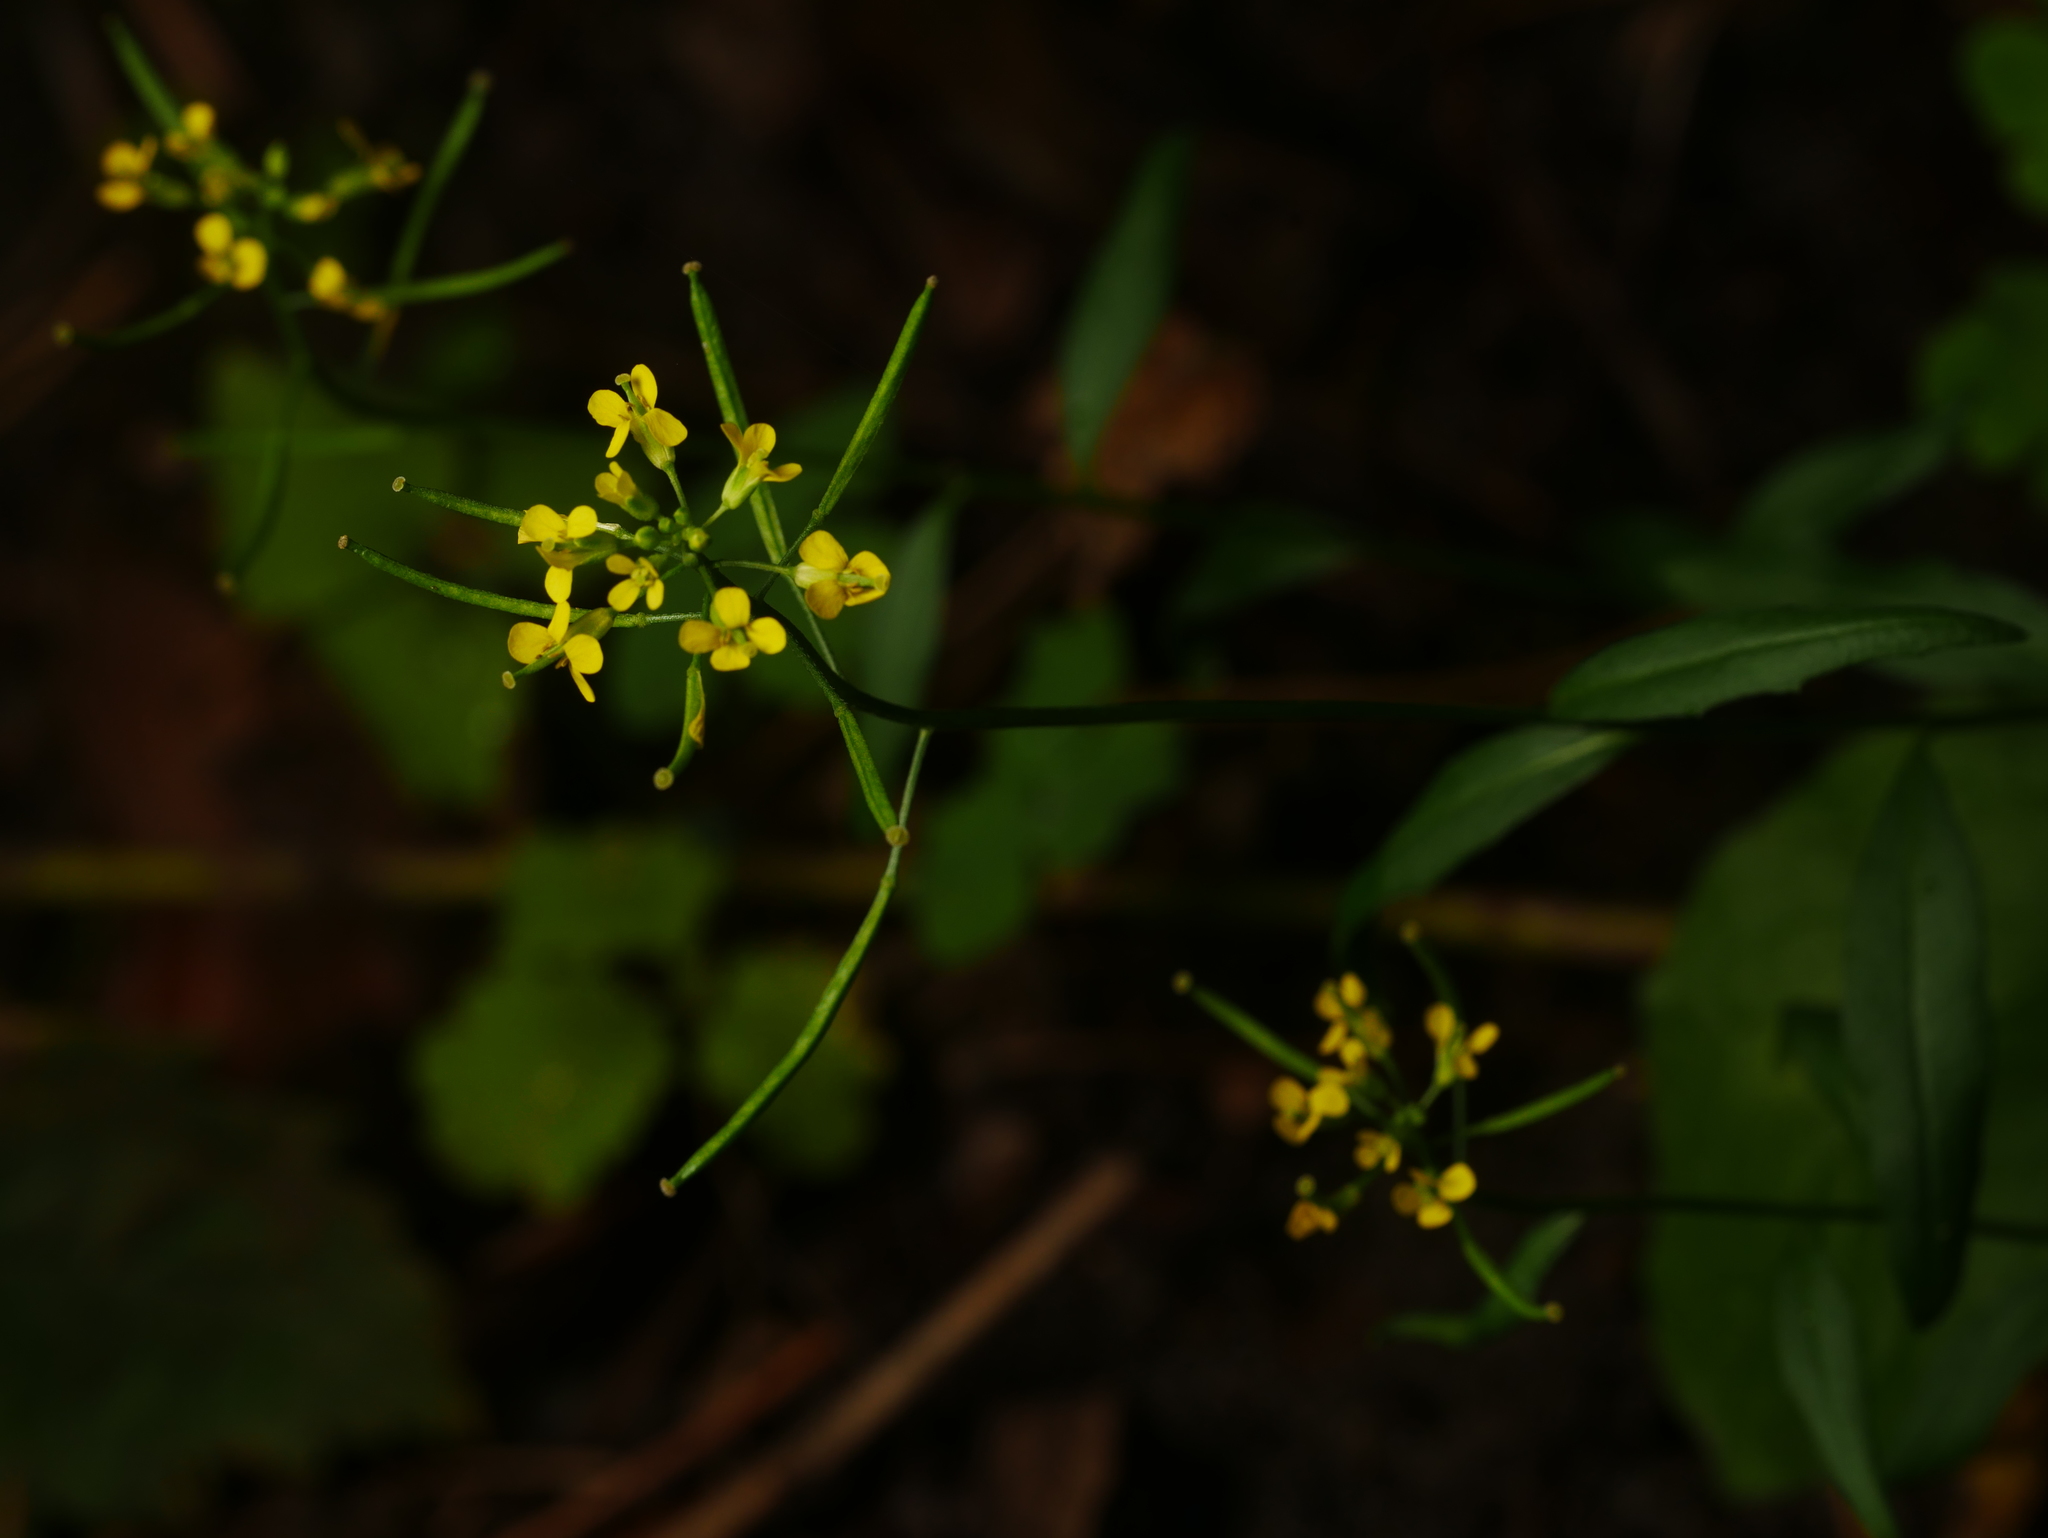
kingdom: Plantae
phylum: Tracheophyta
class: Magnoliopsida
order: Brassicales
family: Brassicaceae
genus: Erysimum
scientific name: Erysimum cheiranthoides
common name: Treacle mustard
